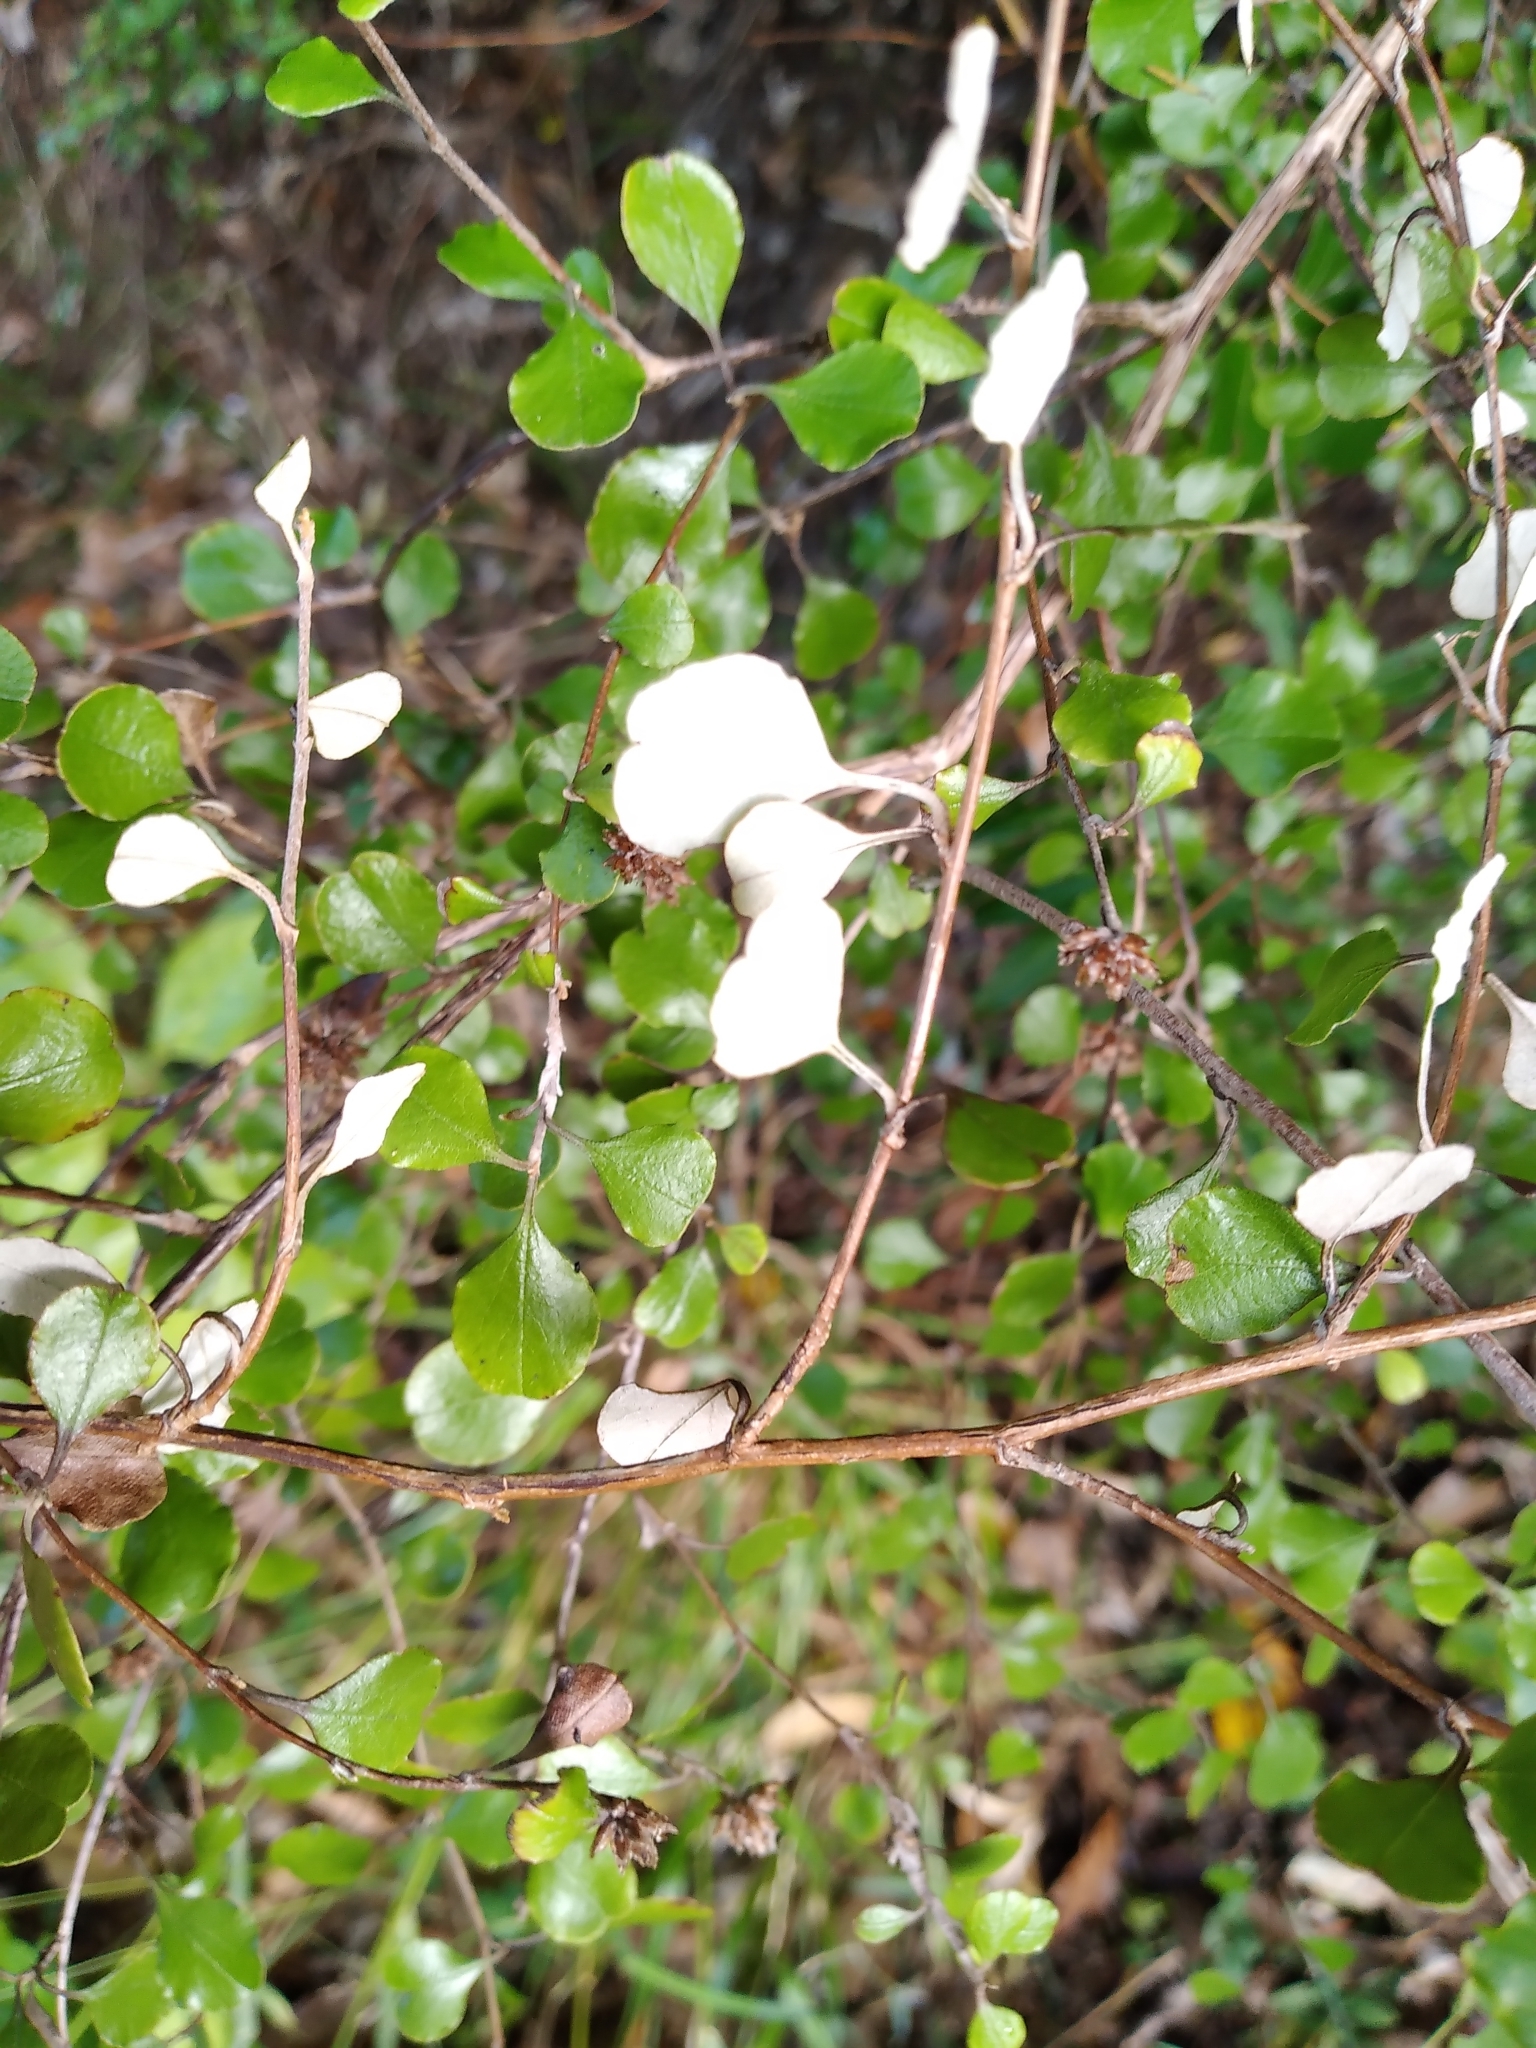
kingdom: Plantae
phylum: Tracheophyta
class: Magnoliopsida
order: Asterales
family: Asteraceae
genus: Ozothamnus
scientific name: Ozothamnus glomeratus
